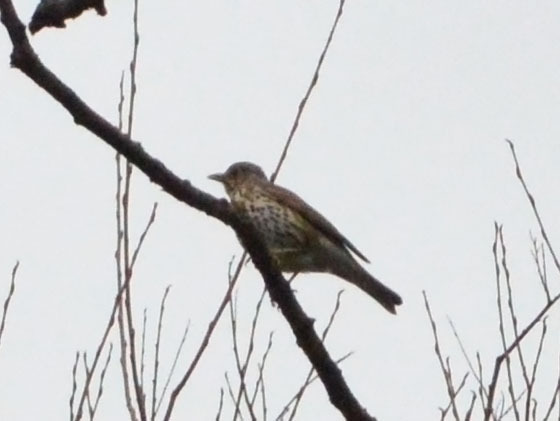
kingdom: Animalia
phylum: Chordata
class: Aves
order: Passeriformes
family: Turdidae
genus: Turdus
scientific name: Turdus philomelos
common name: Song thrush
